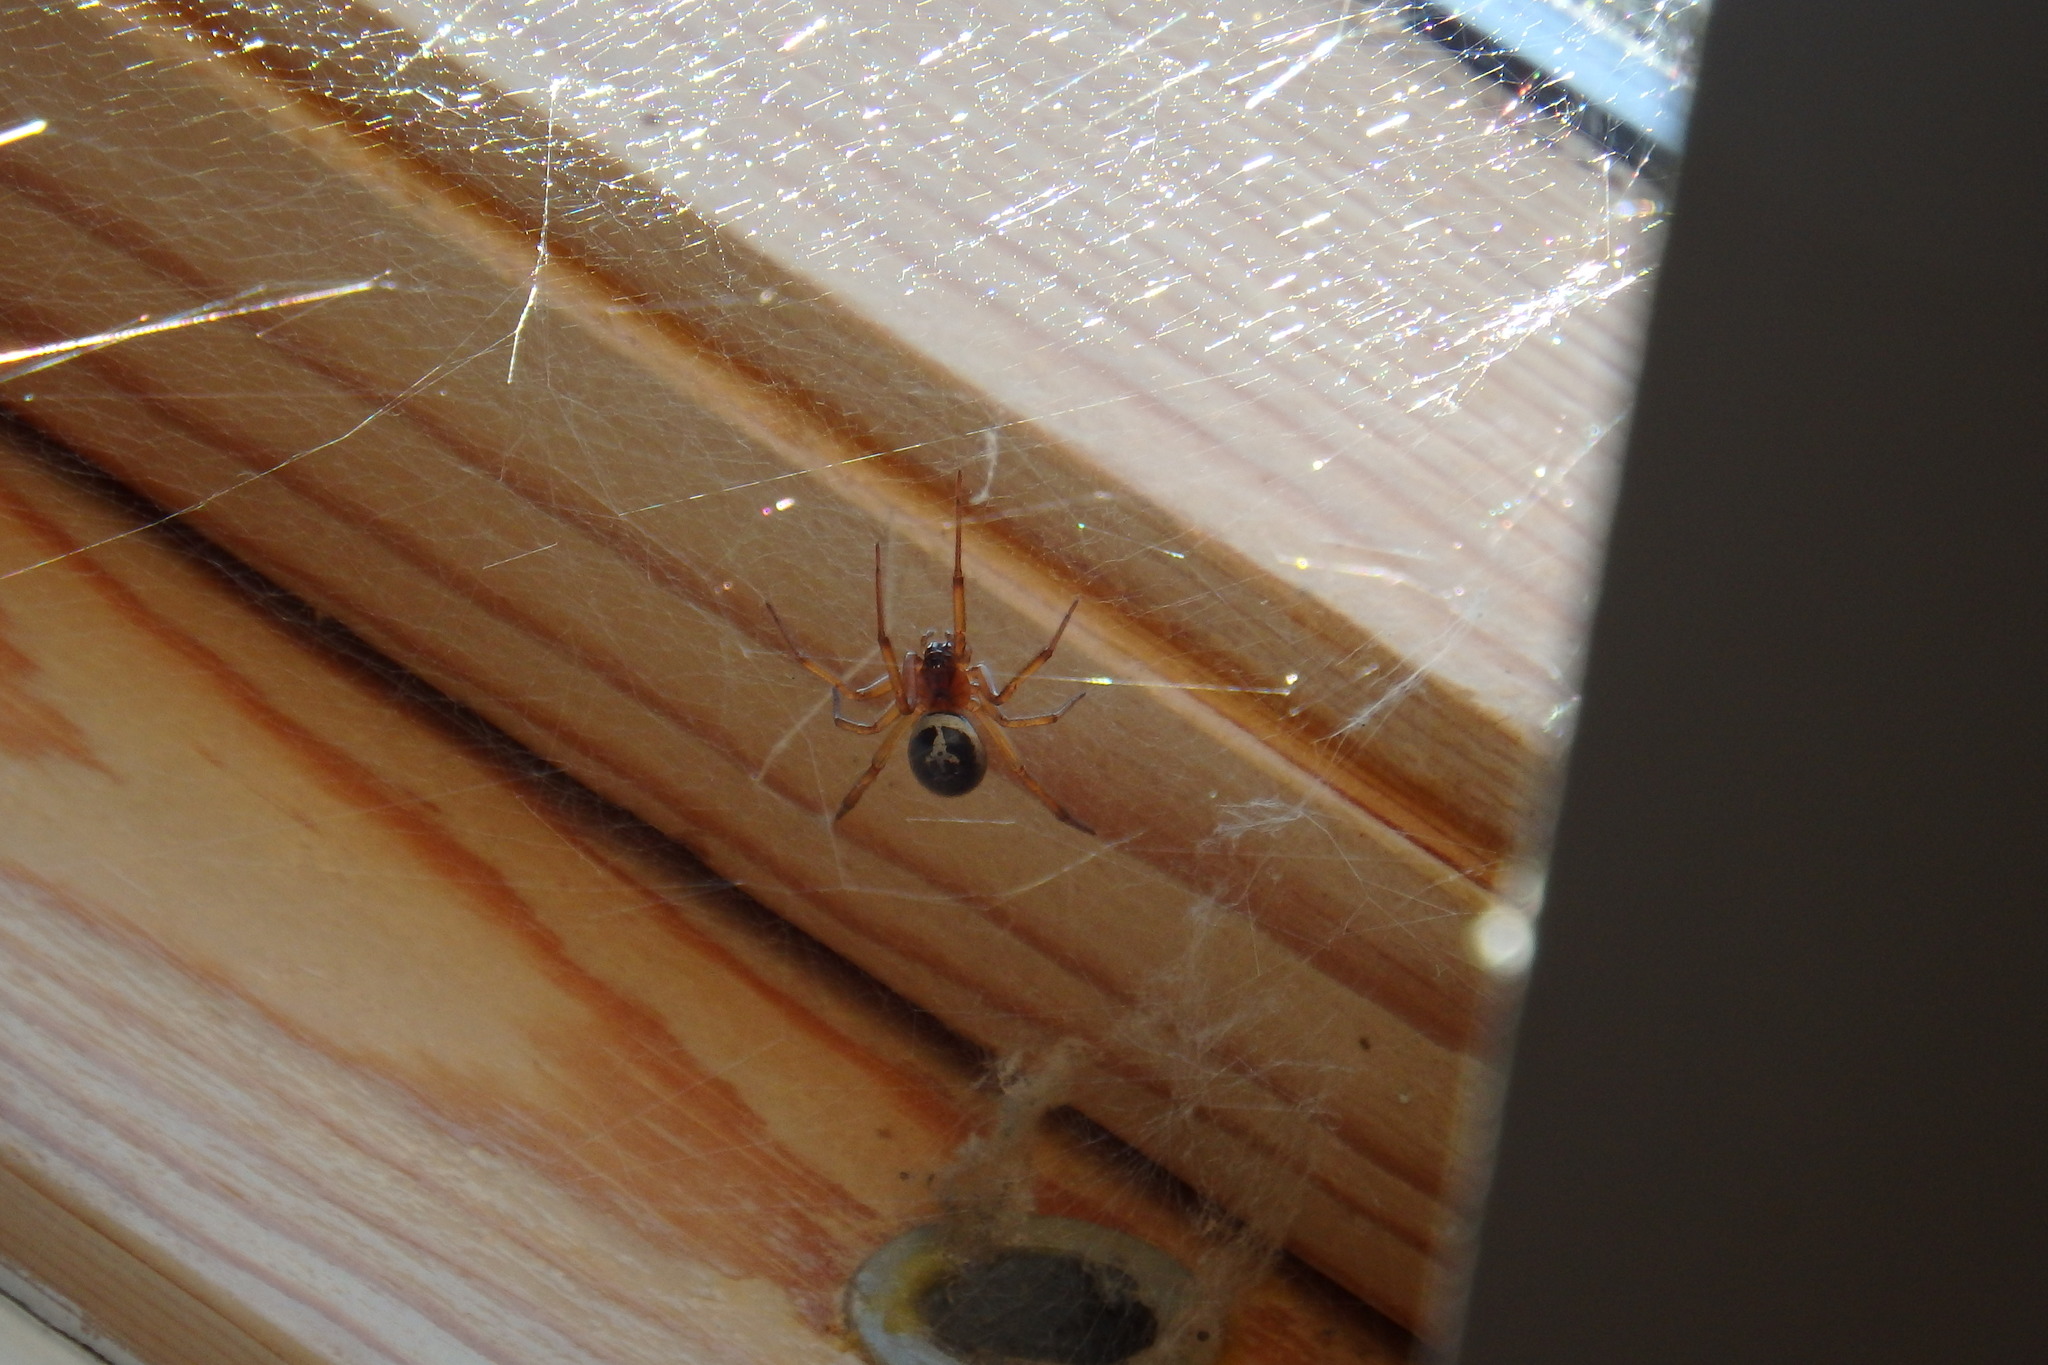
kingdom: Animalia
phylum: Arthropoda
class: Arachnida
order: Araneae
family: Theridiidae
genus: Steatoda
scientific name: Steatoda nobilis
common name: Cobweb weaver
